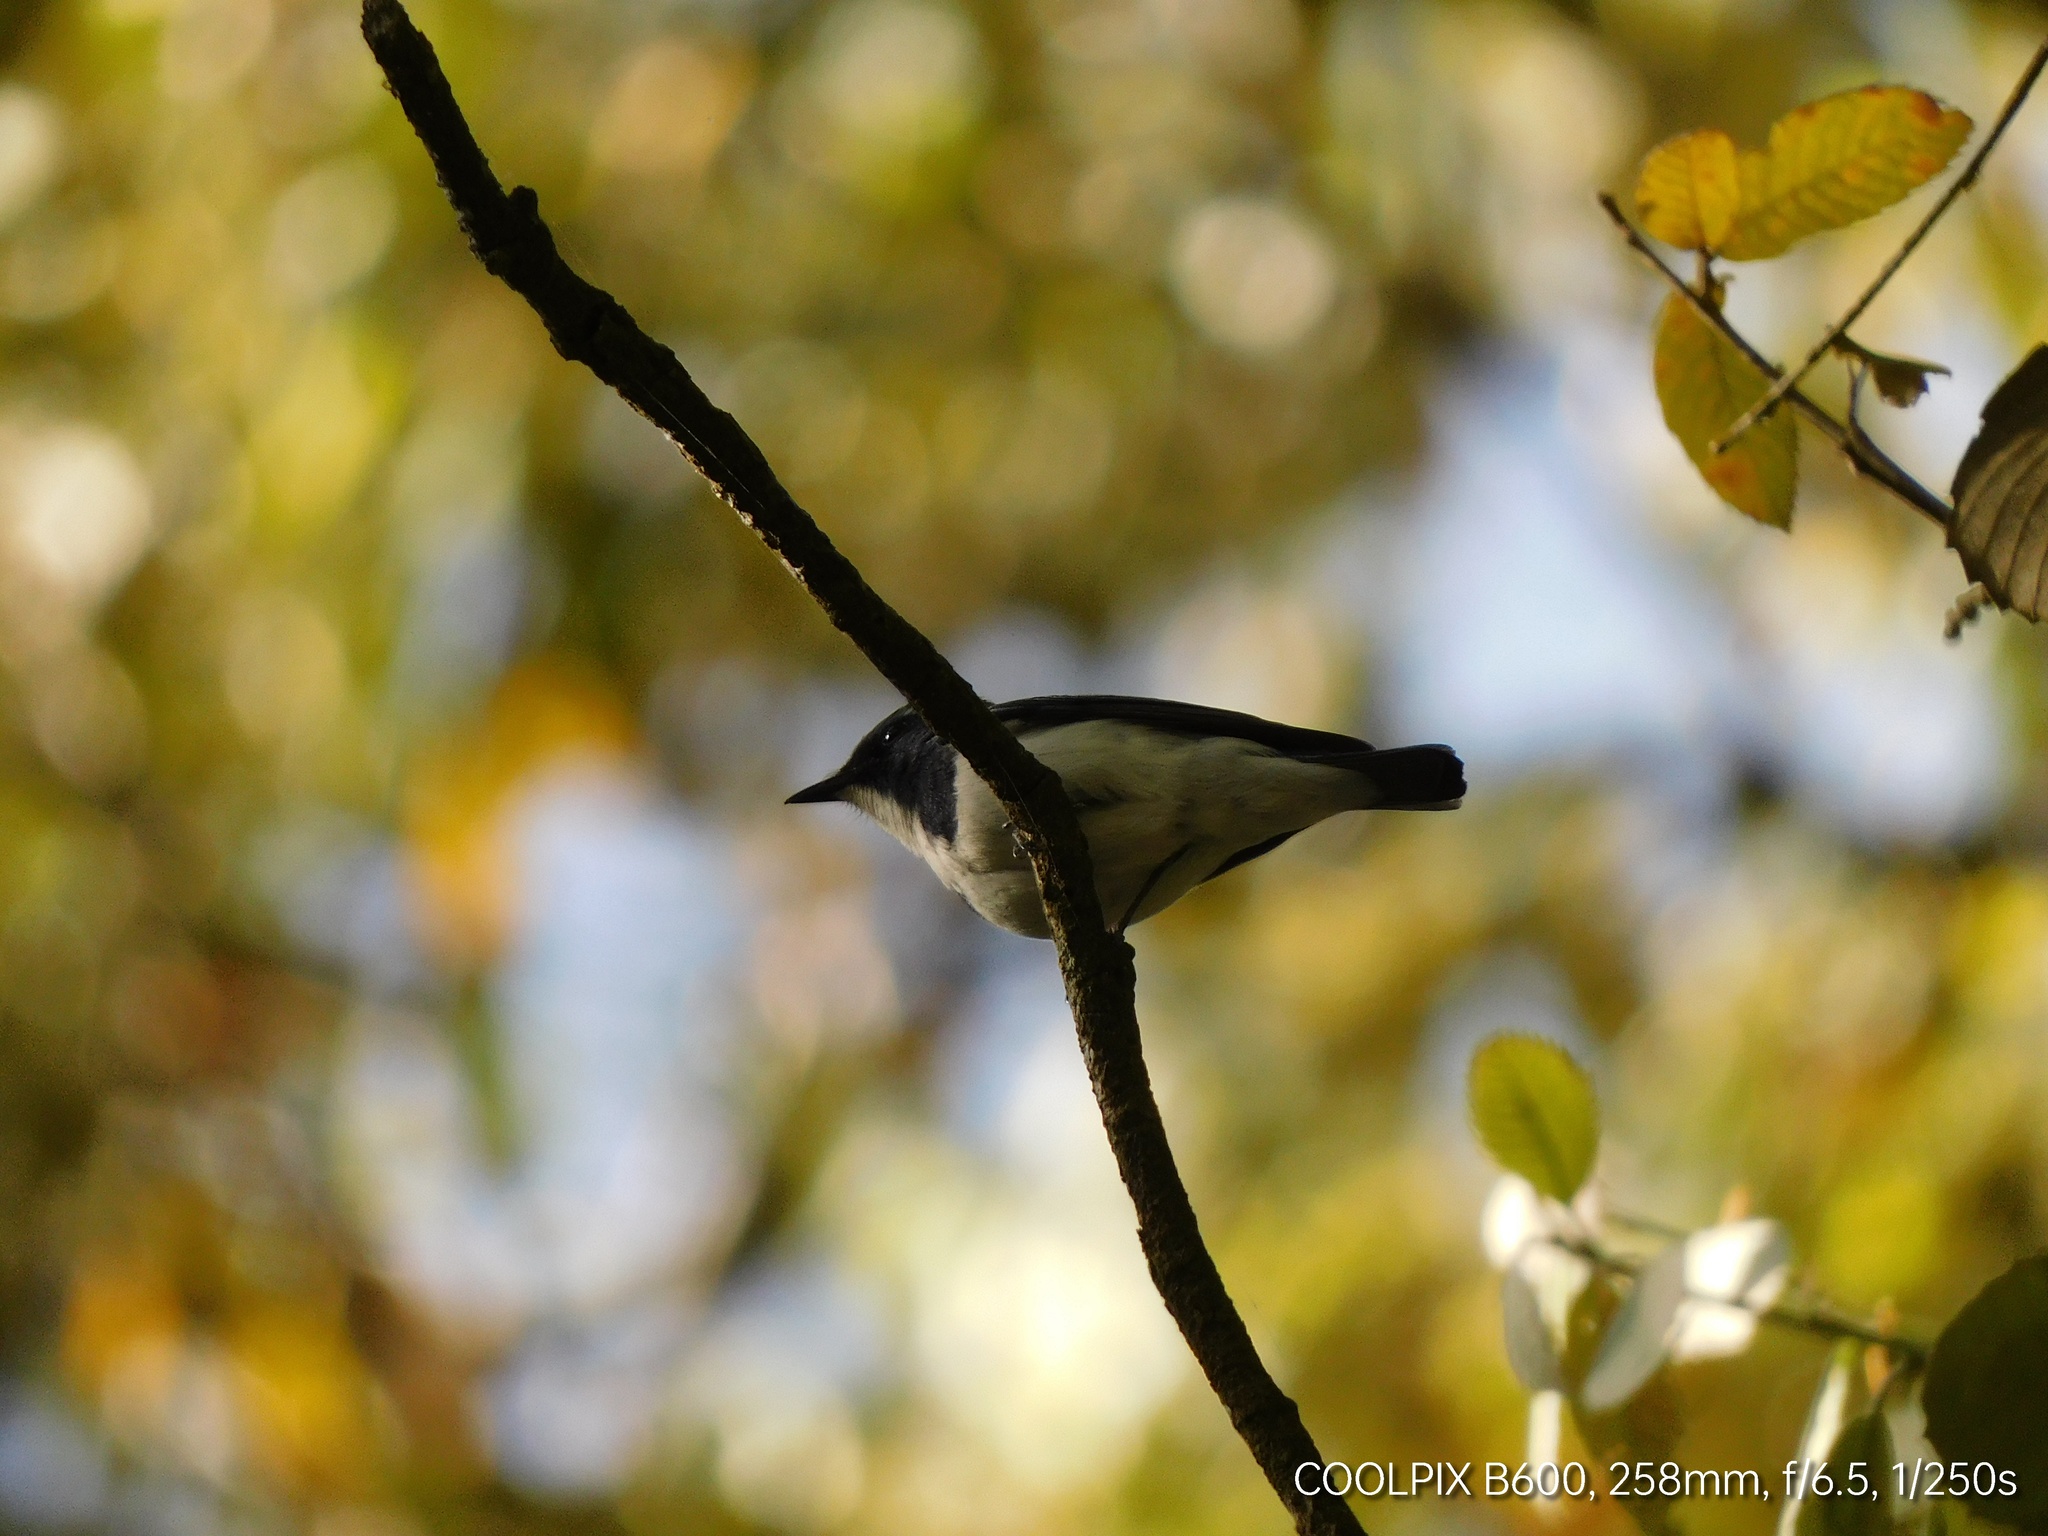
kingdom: Animalia
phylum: Chordata
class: Aves
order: Passeriformes
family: Muscicapidae
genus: Ficedula
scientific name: Ficedula superciliaris
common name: Ultramarine flycatcher
